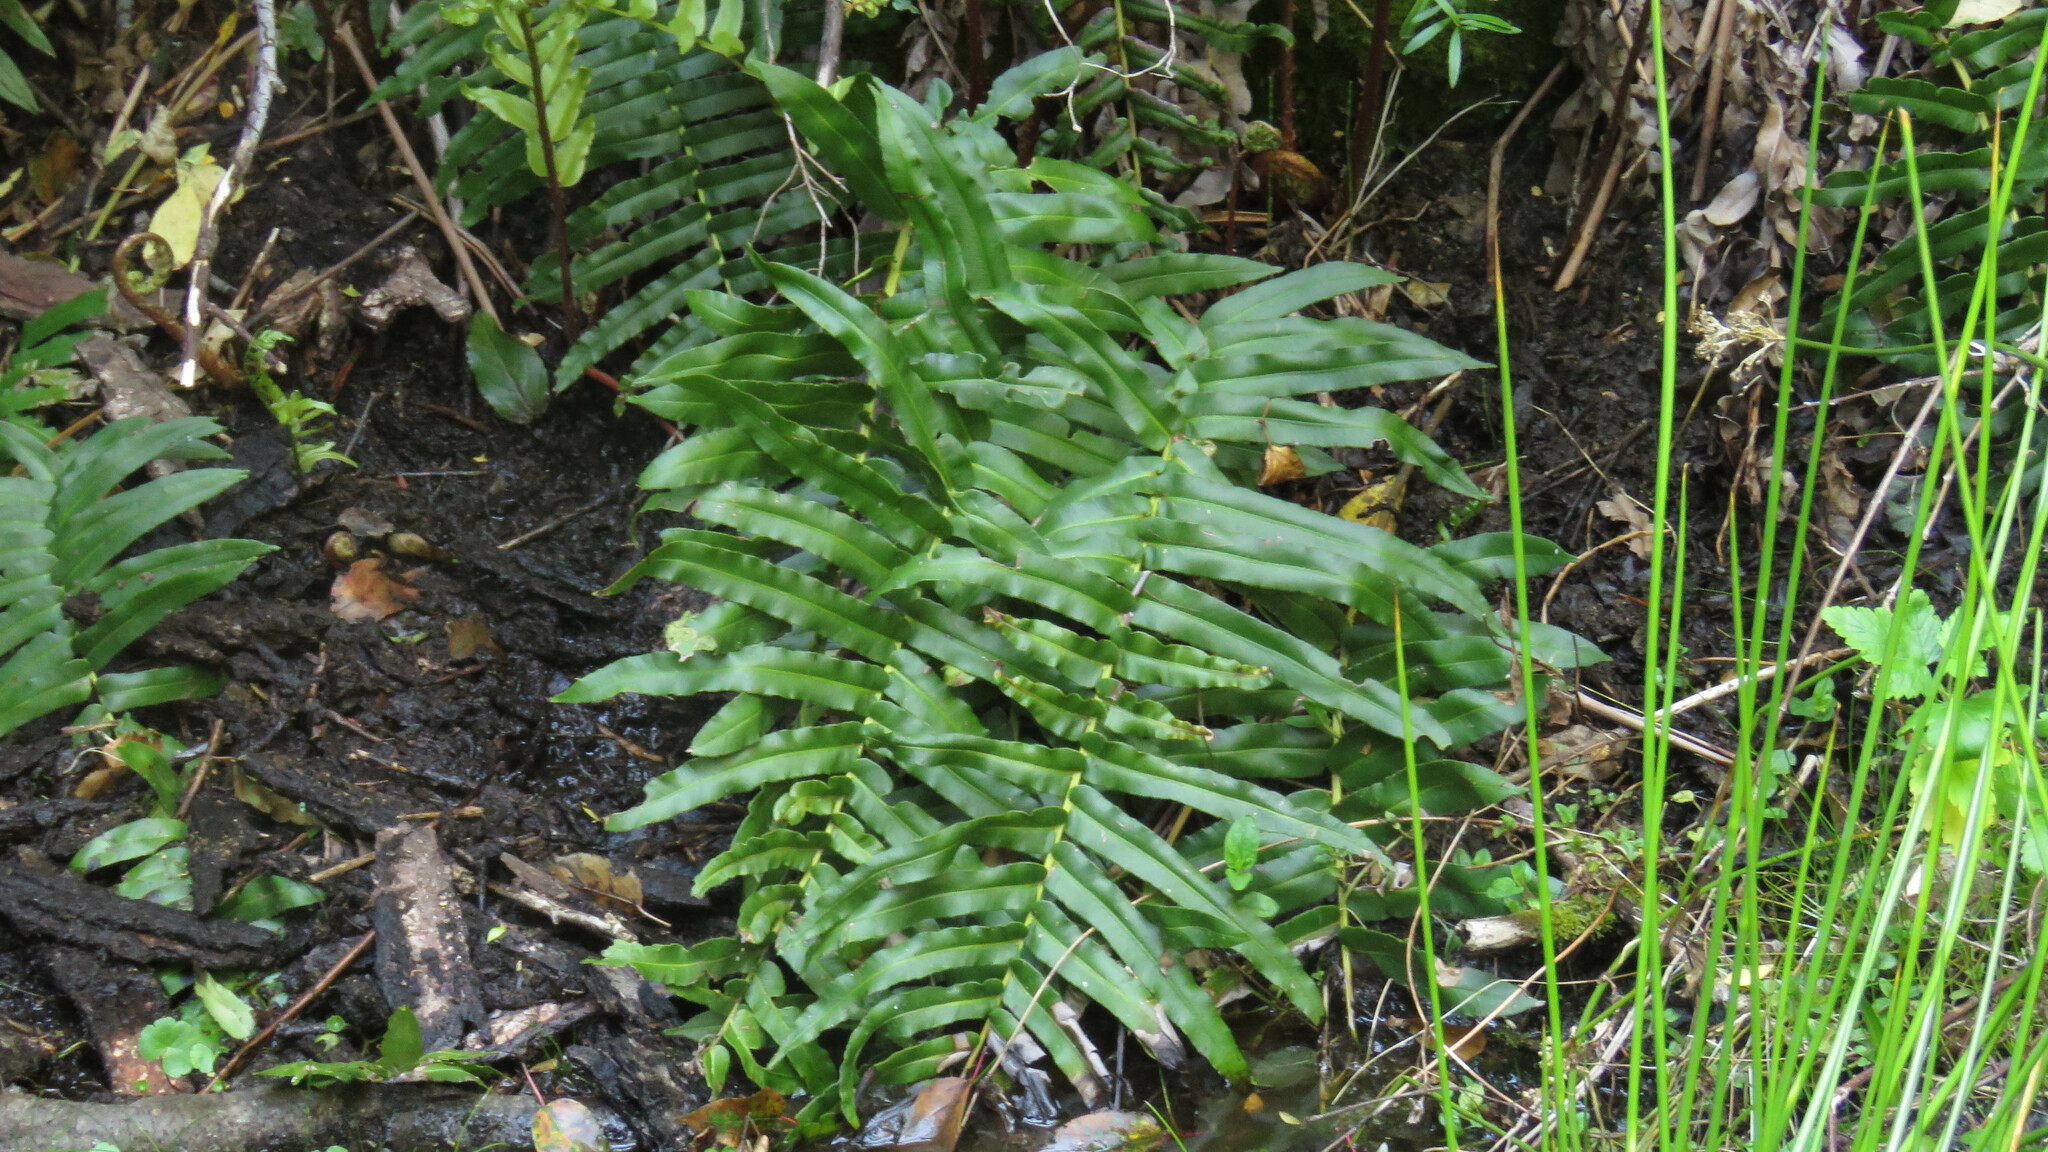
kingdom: Plantae
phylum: Tracheophyta
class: Polypodiopsida
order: Polypodiales
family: Blechnaceae
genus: Parablechnum
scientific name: Parablechnum chilense
